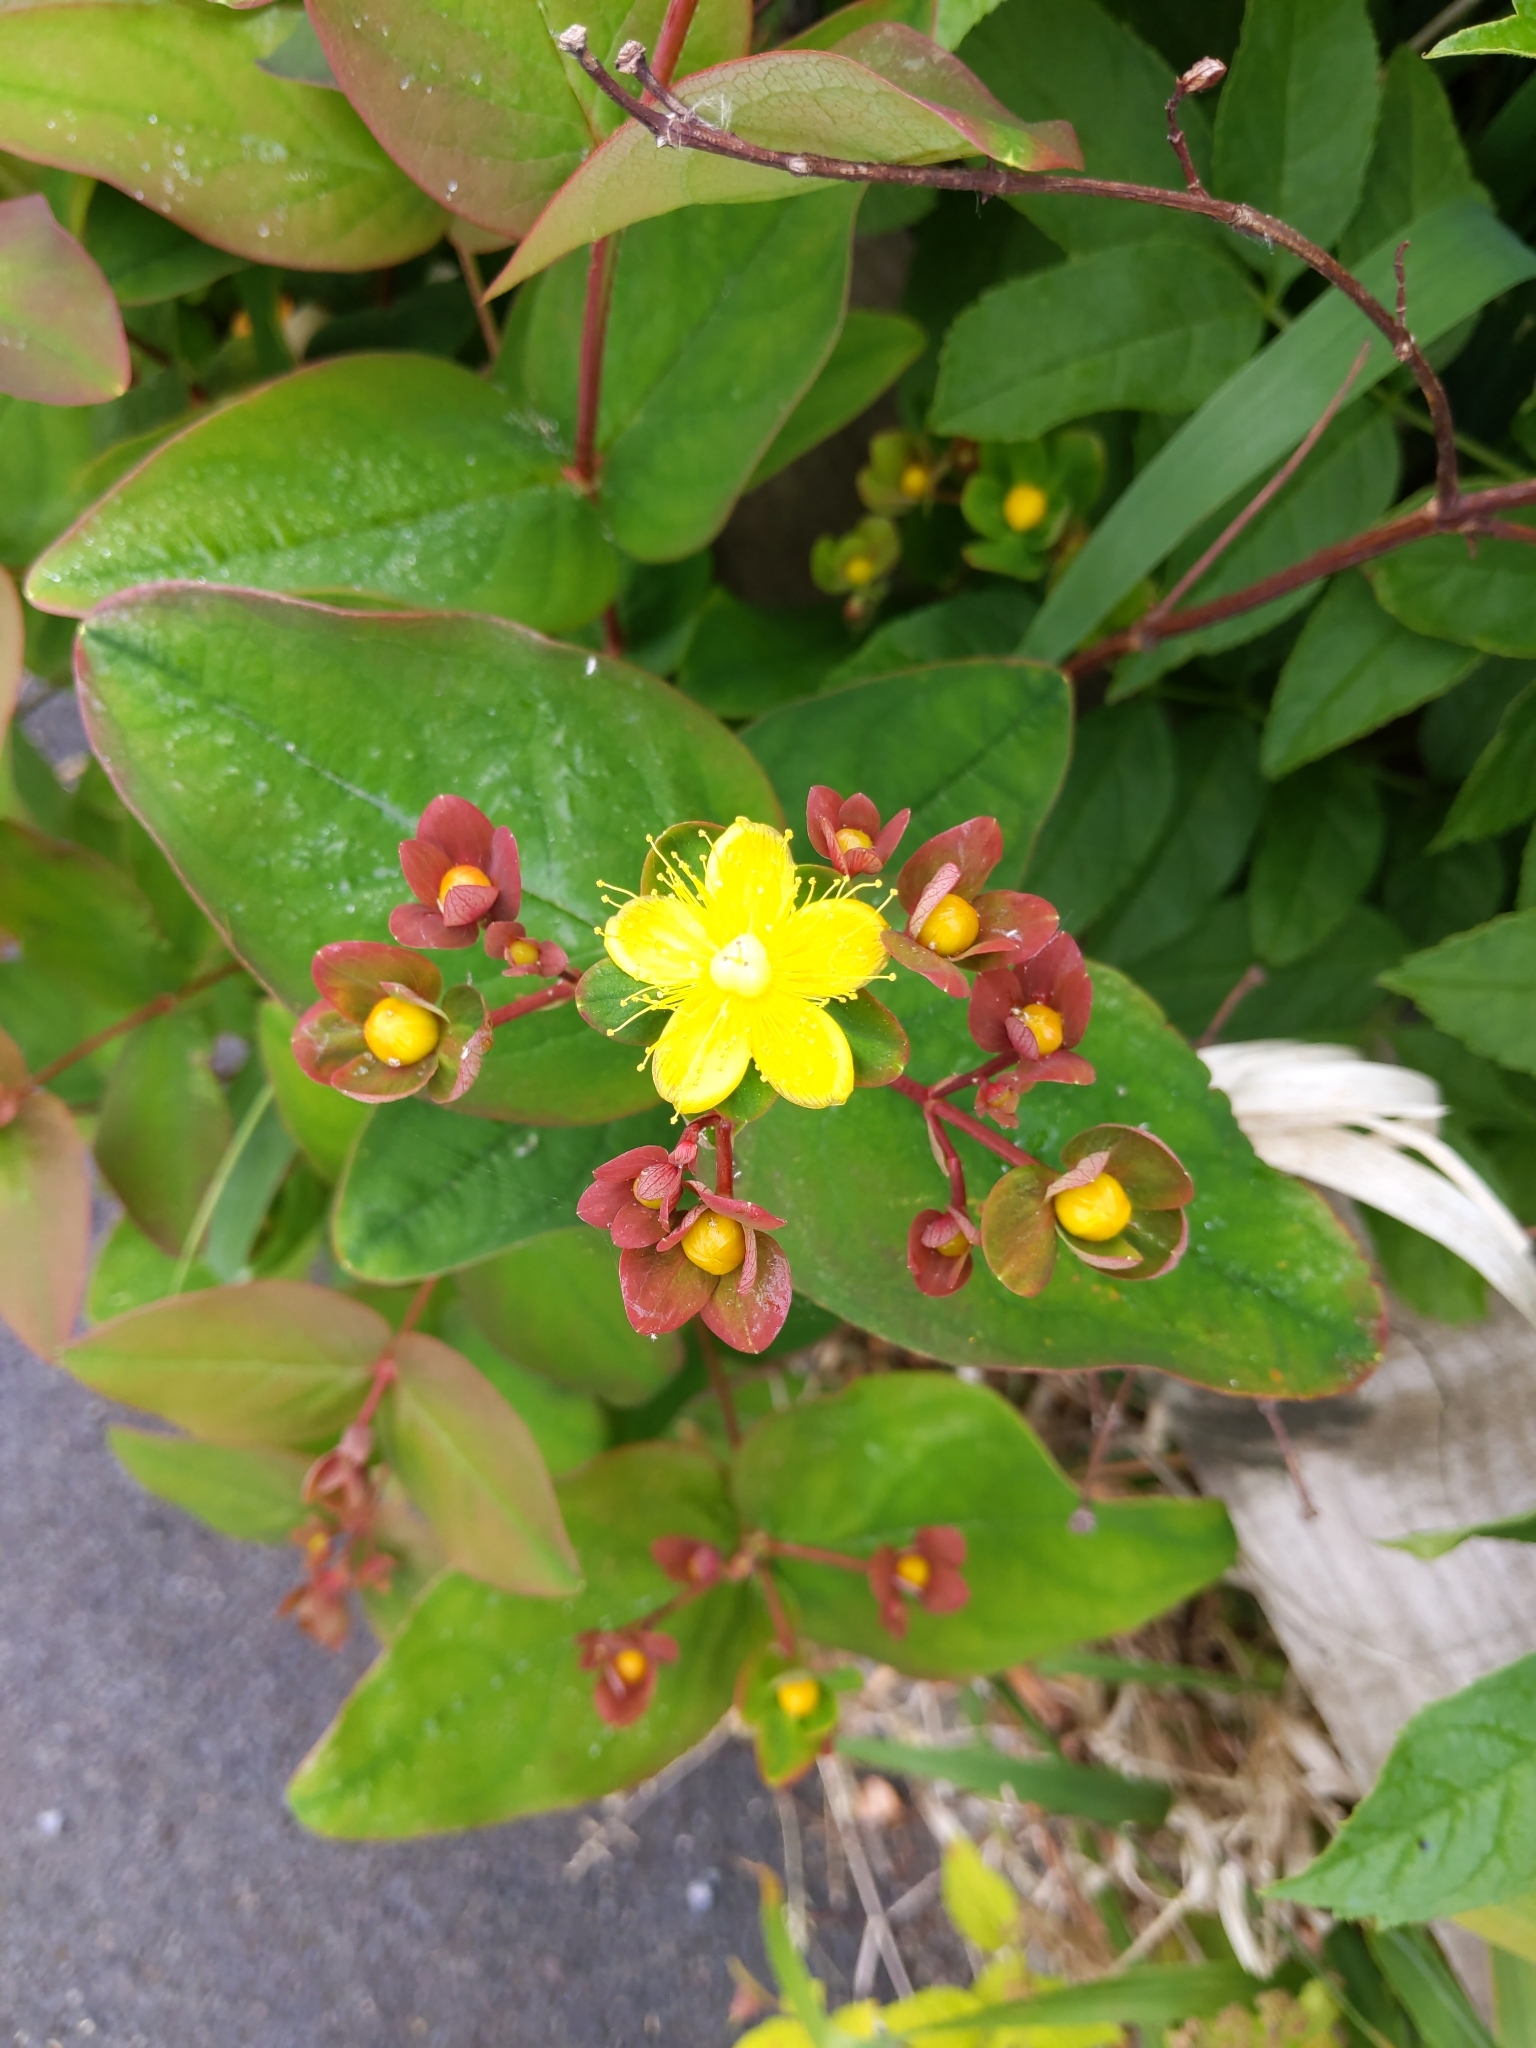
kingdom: Plantae
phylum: Tracheophyta
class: Magnoliopsida
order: Malpighiales
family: Hypericaceae
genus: Hypericum
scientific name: Hypericum androsaemum
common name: Sweet-amber
